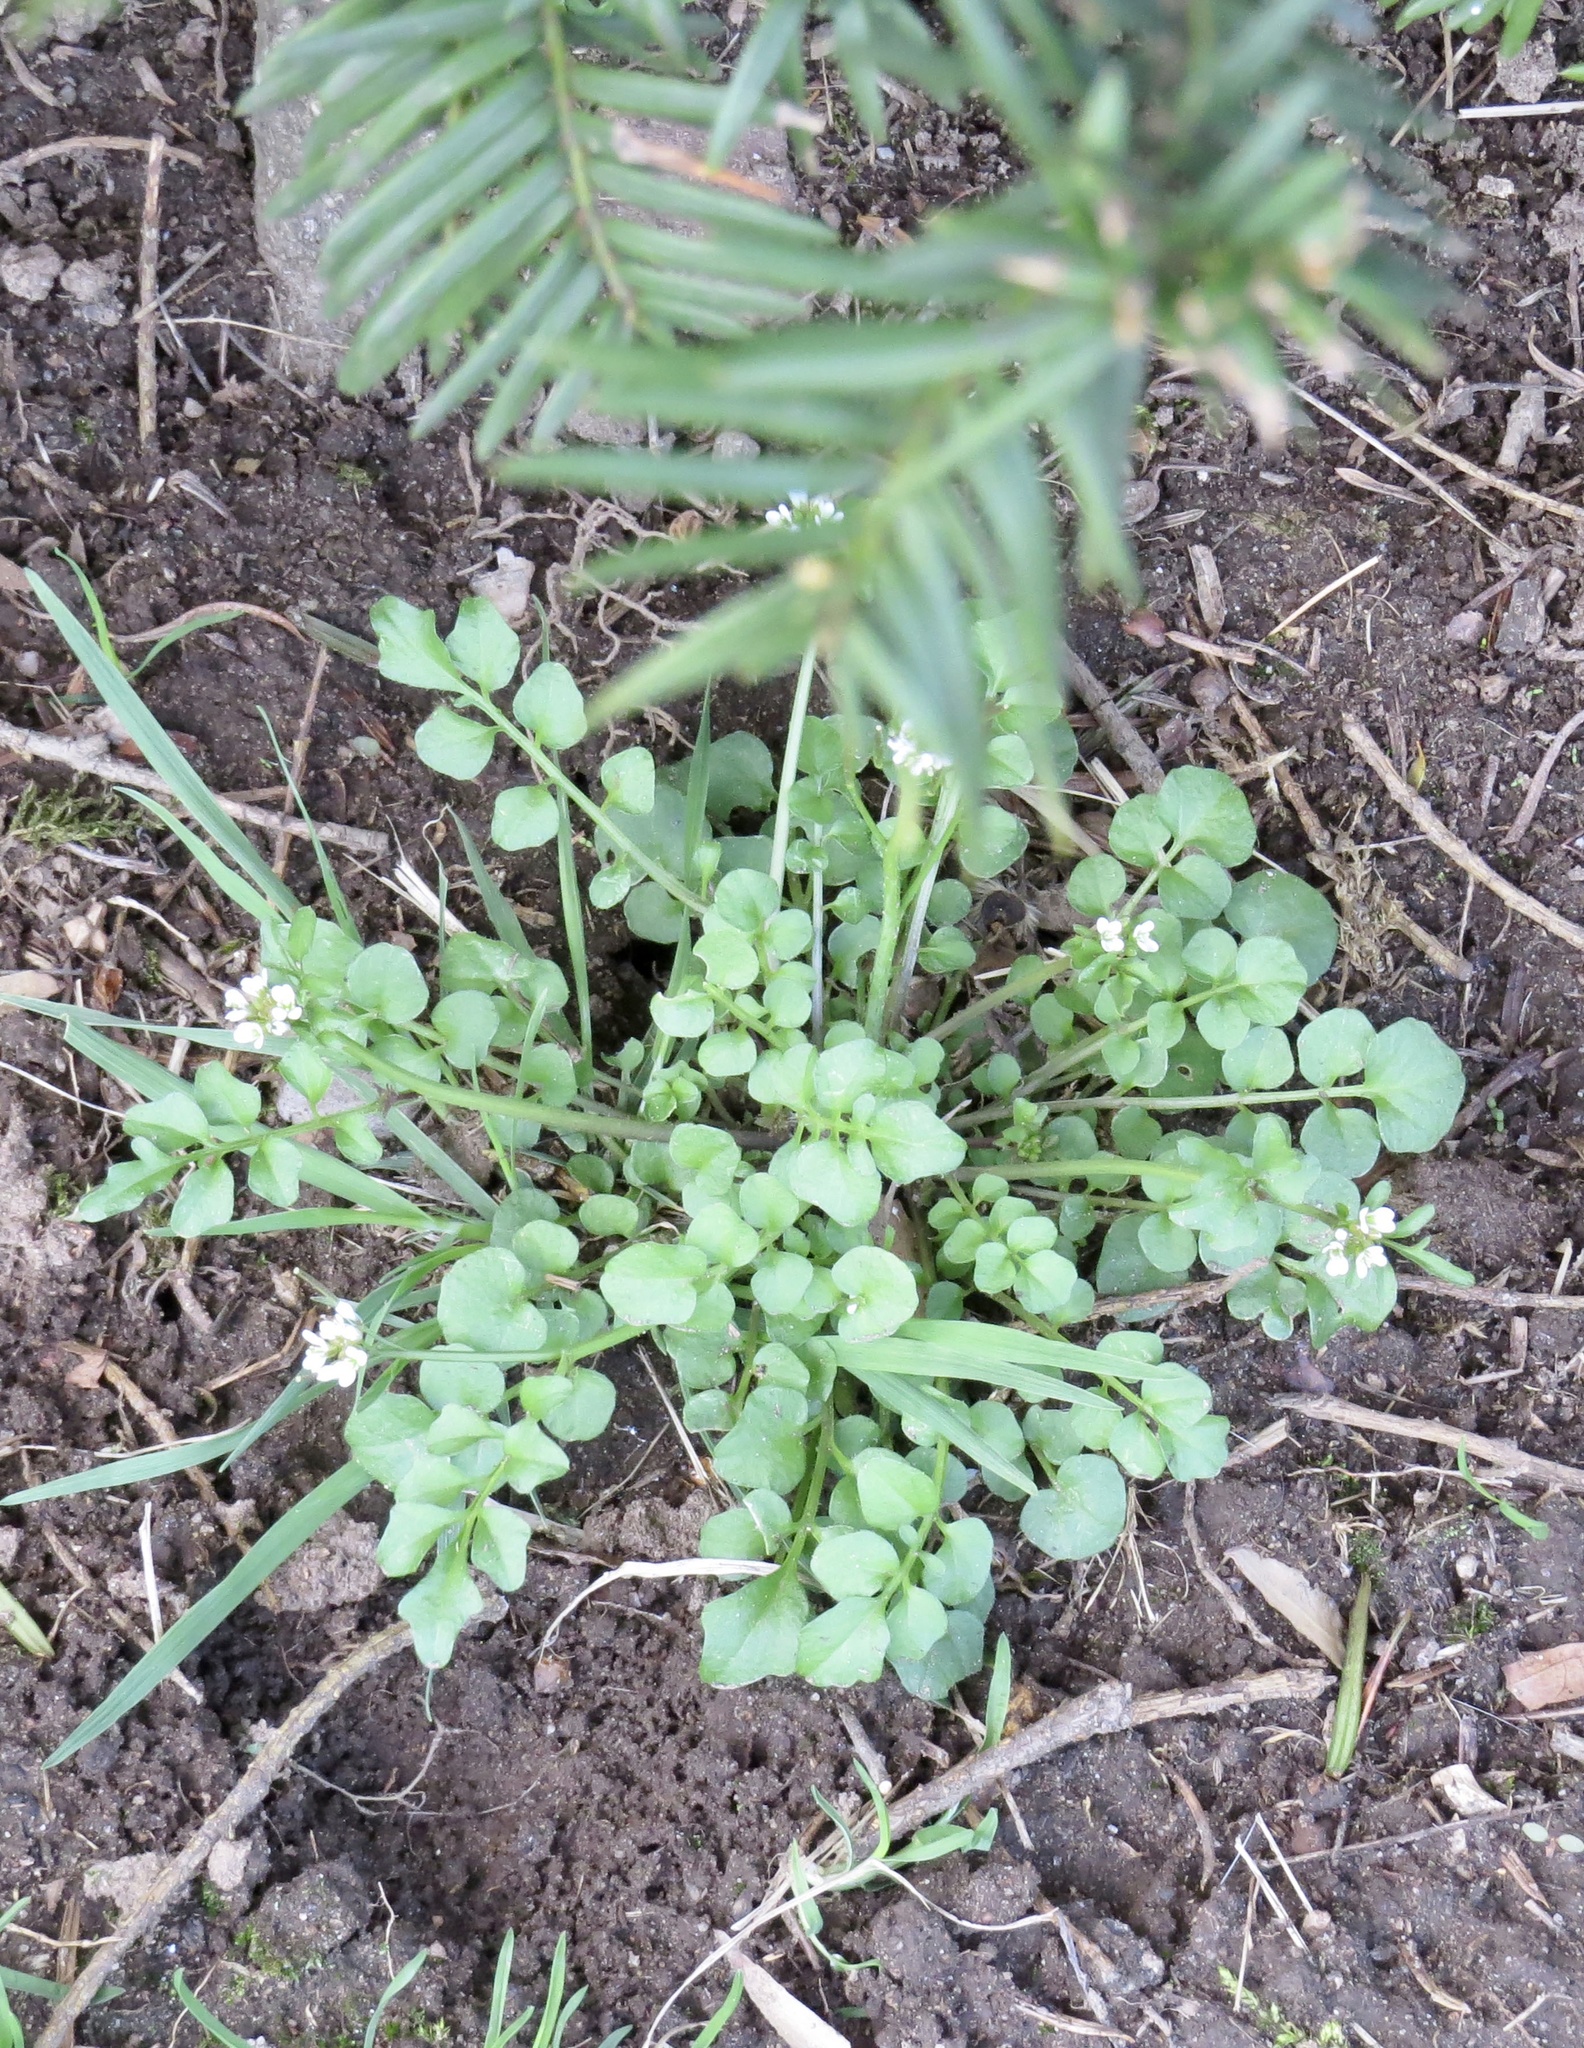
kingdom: Plantae
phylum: Tracheophyta
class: Magnoliopsida
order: Brassicales
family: Brassicaceae
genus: Cardamine
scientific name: Cardamine hirsuta
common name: Hairy bittercress
